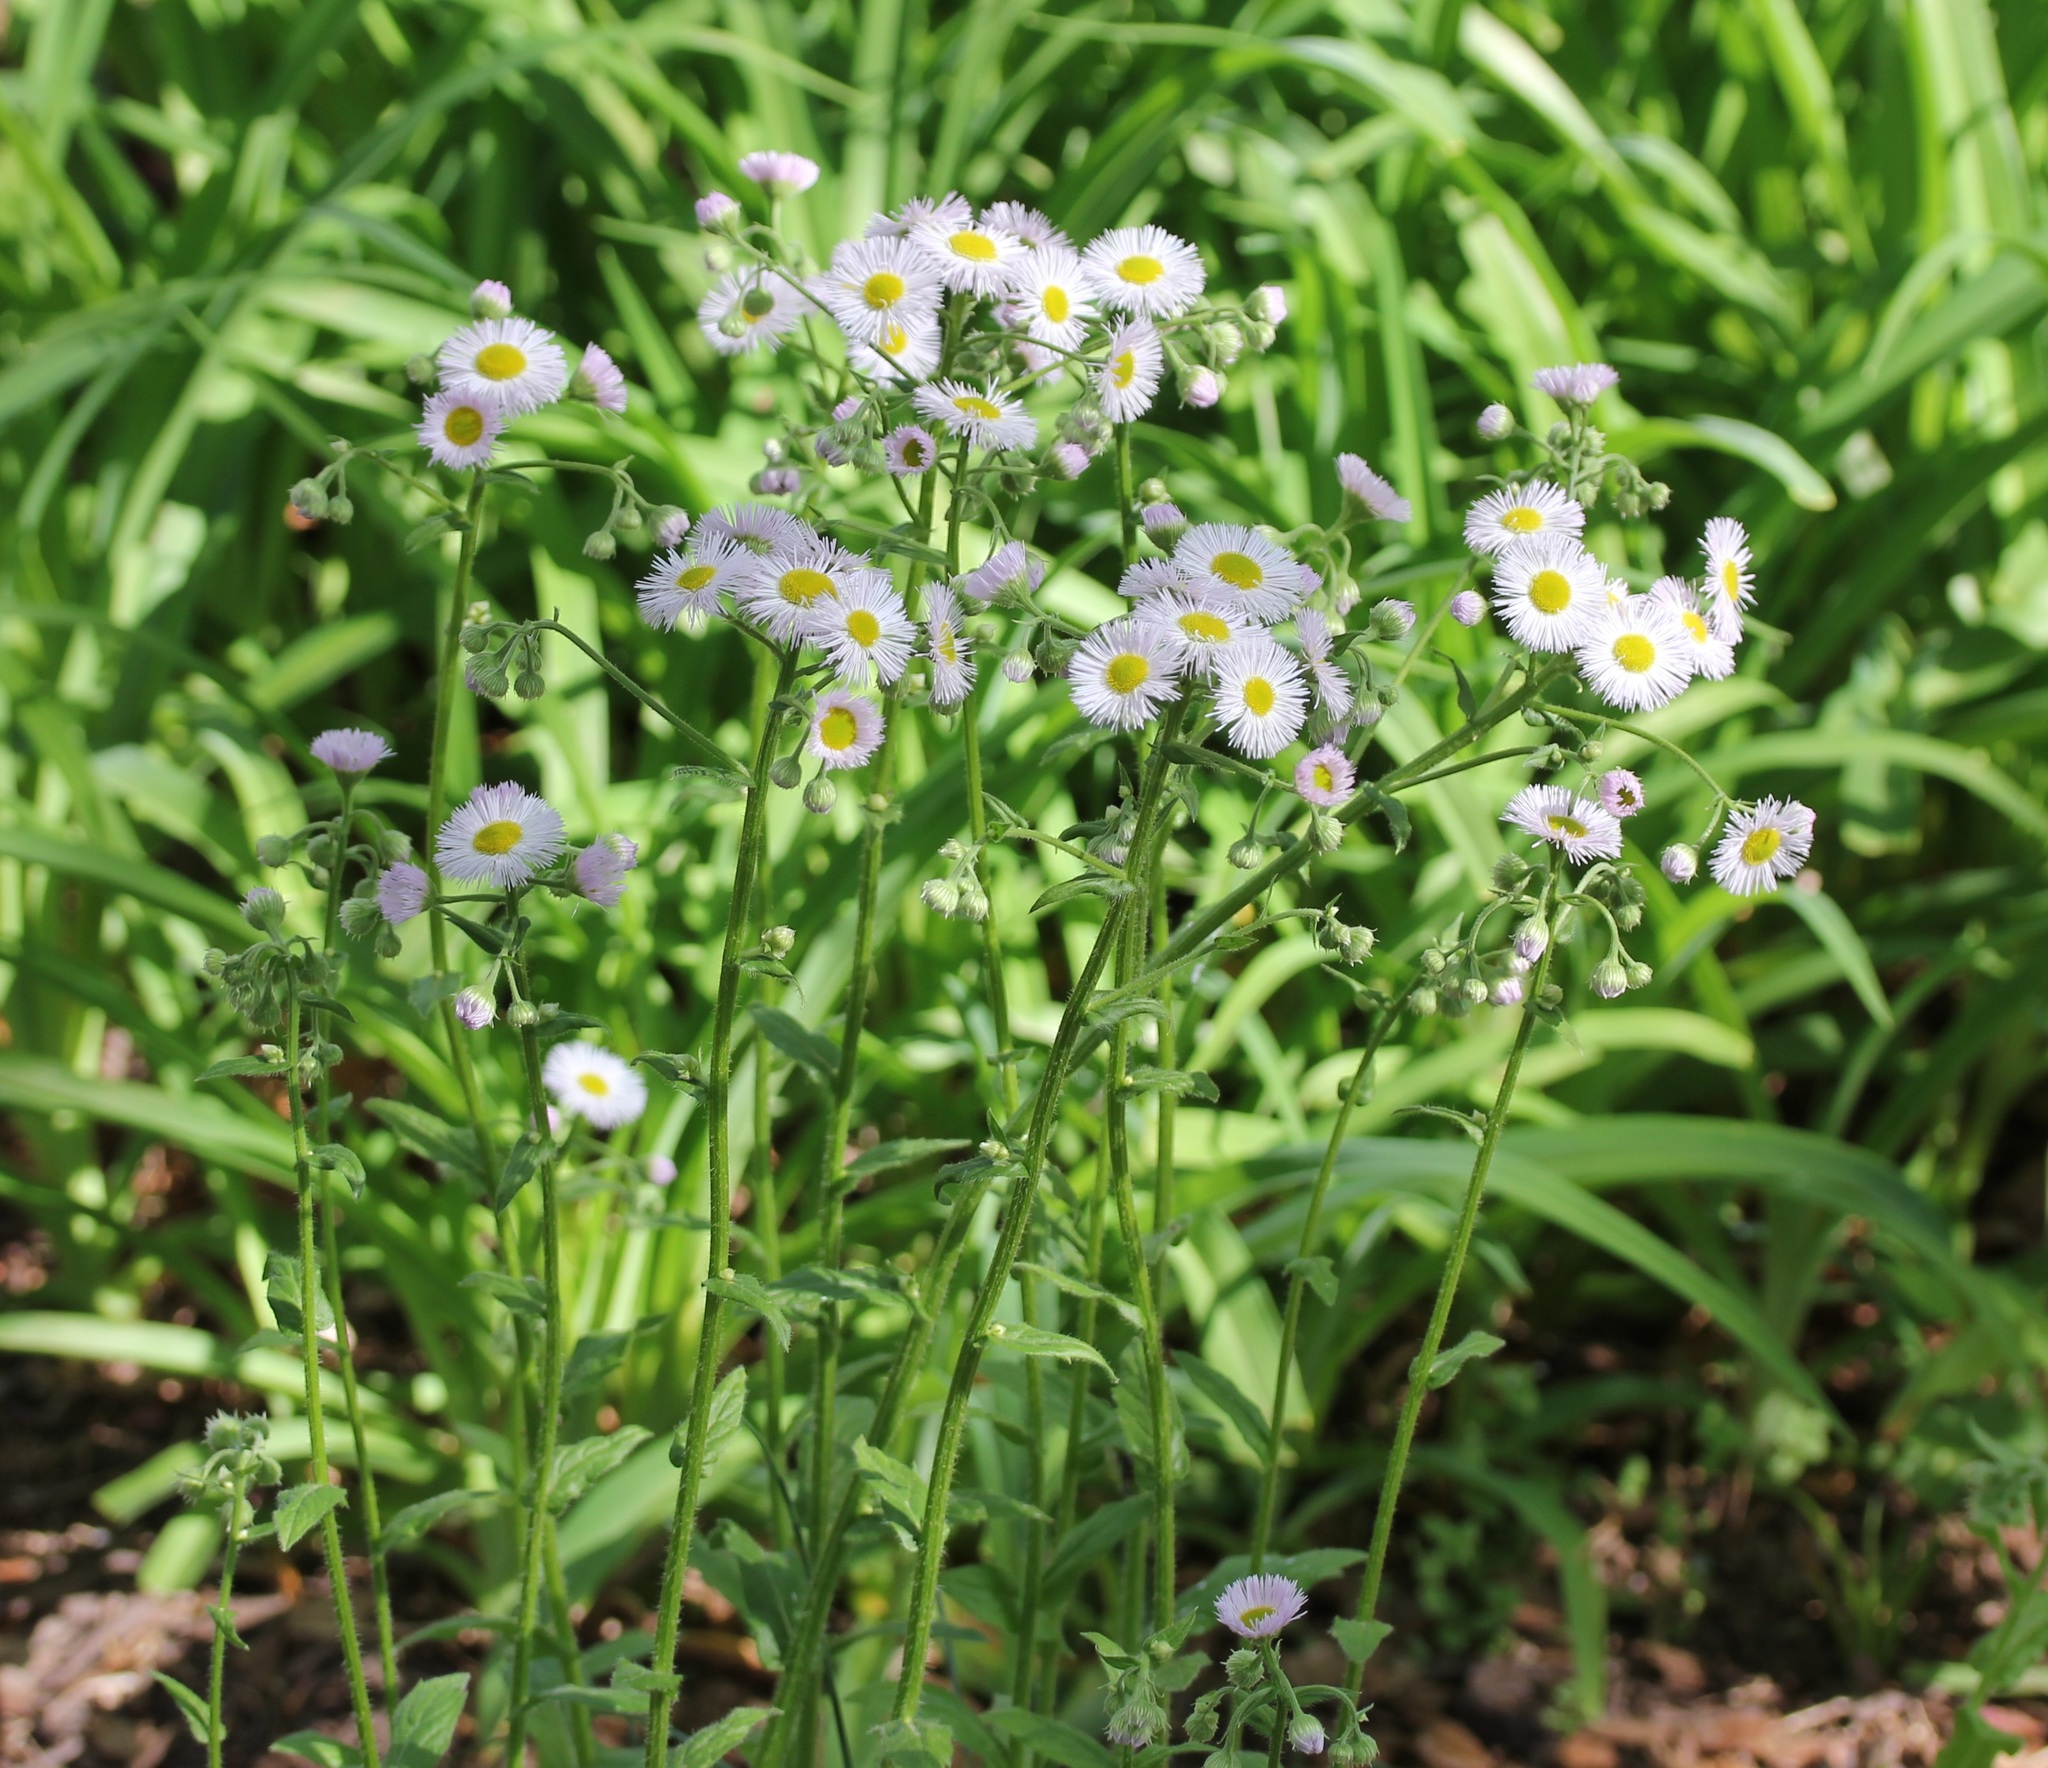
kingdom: Plantae
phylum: Tracheophyta
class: Magnoliopsida
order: Asterales
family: Asteraceae
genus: Erigeron
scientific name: Erigeron philadelphicus
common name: Robin's-plantain
